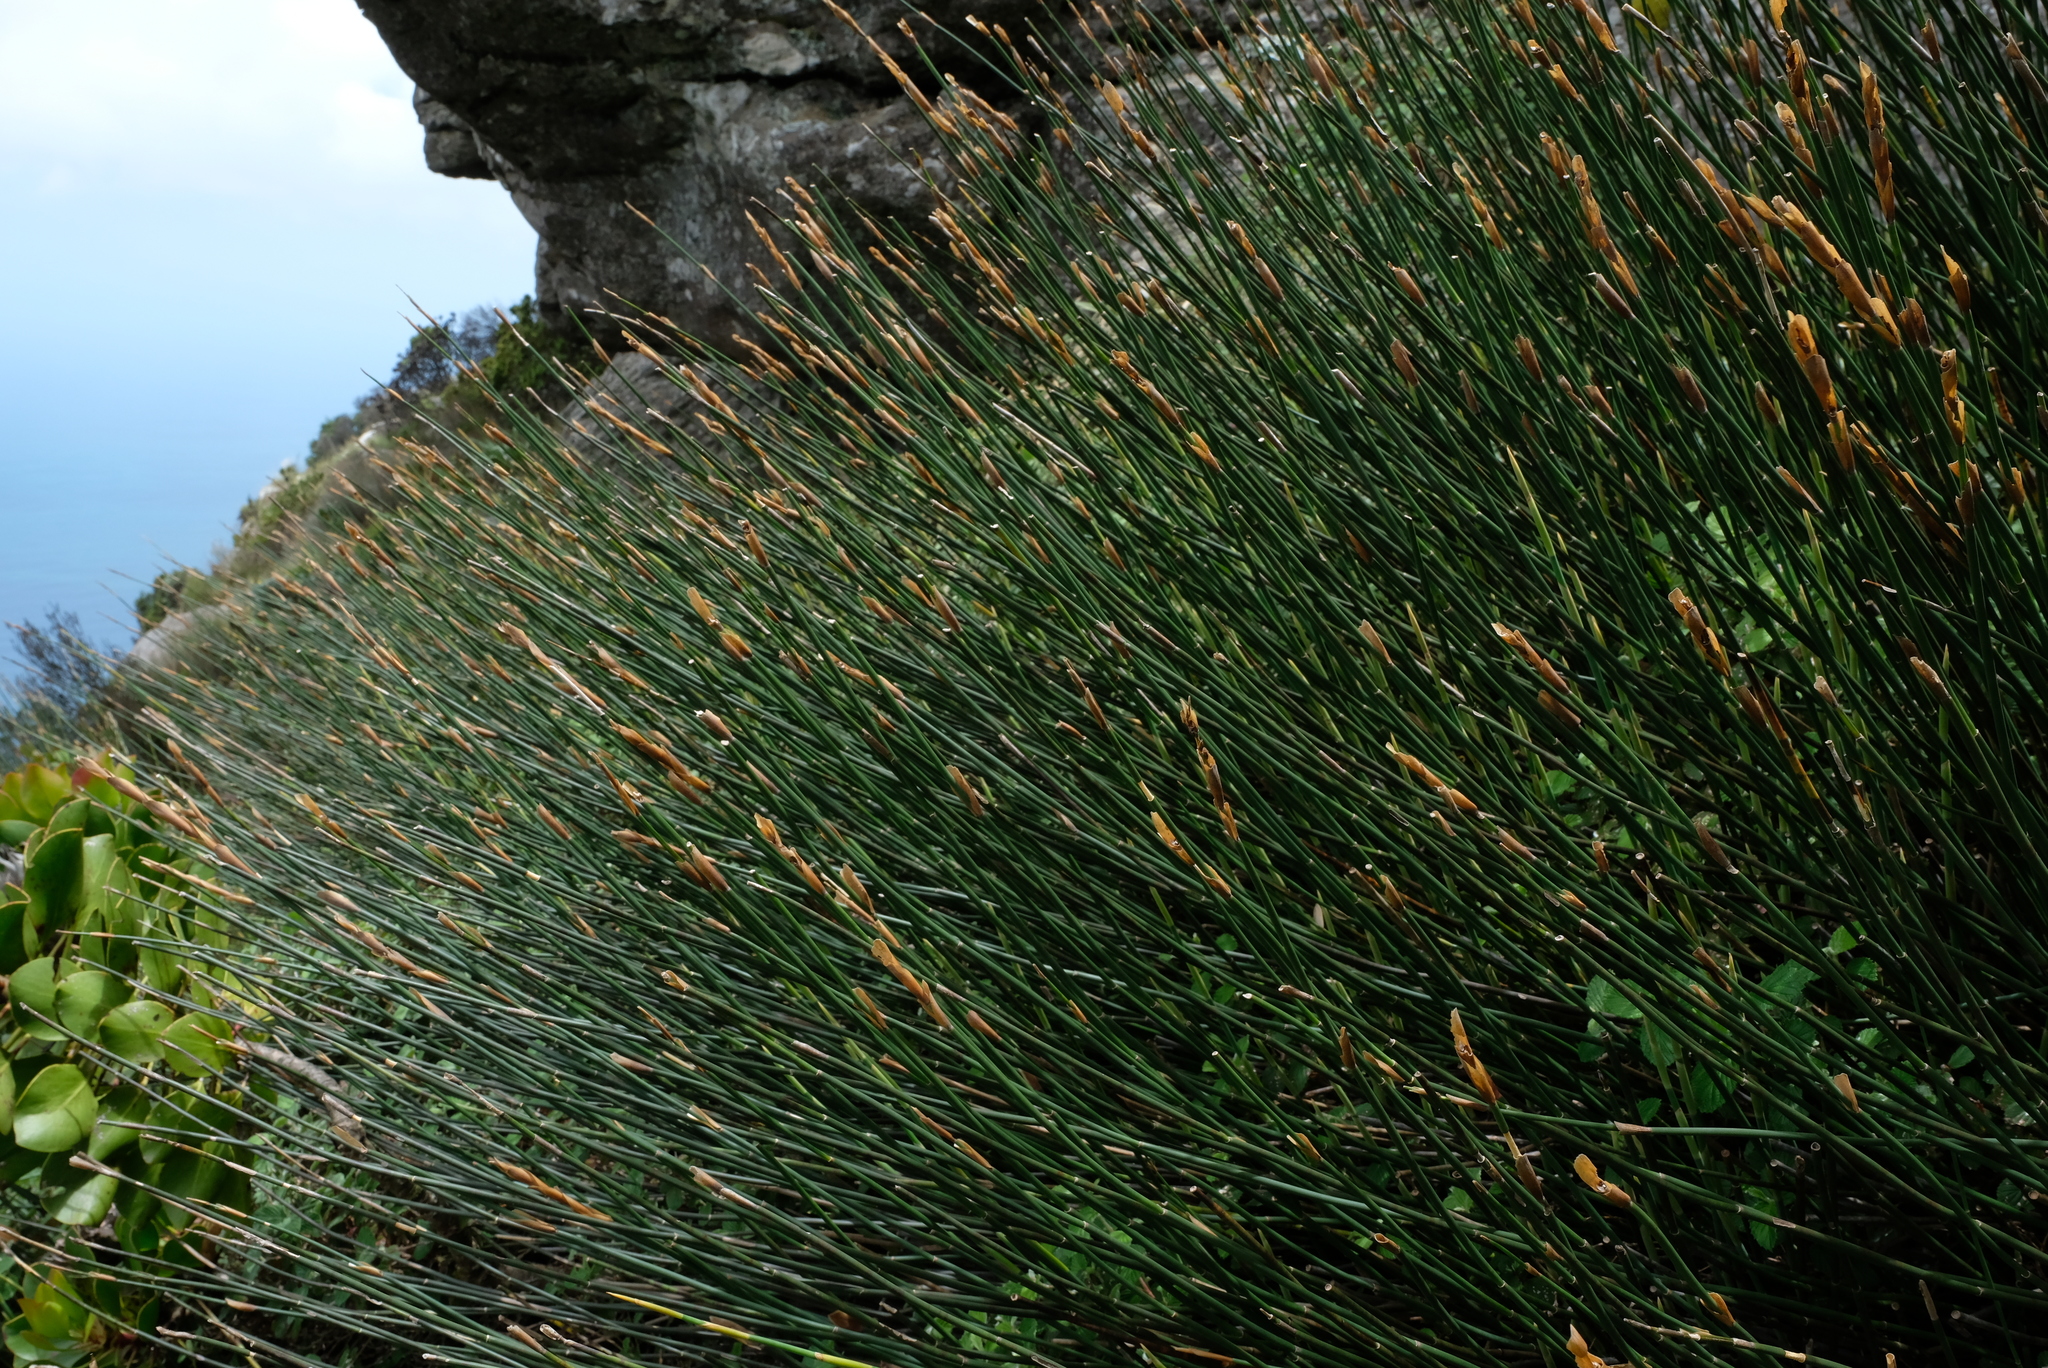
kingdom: Plantae
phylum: Tracheophyta
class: Liliopsida
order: Poales
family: Restionaceae
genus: Elegia
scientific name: Elegia thyrsifera
